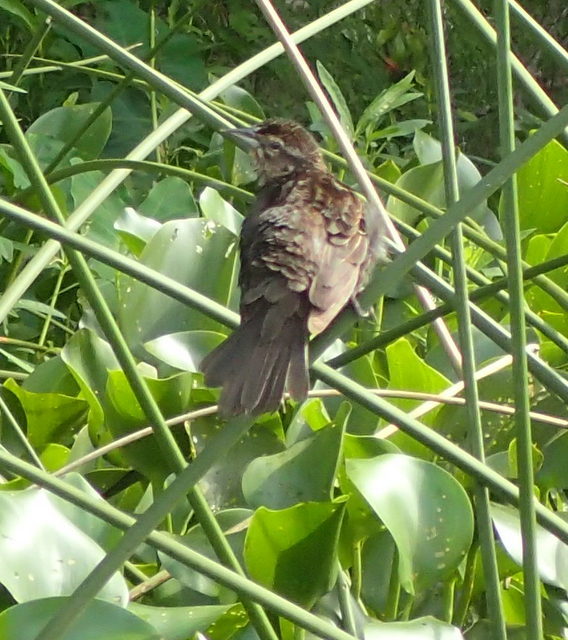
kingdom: Animalia
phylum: Chordata
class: Aves
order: Passeriformes
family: Icteridae
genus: Agelaius
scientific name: Agelaius phoeniceus
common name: Red-winged blackbird
